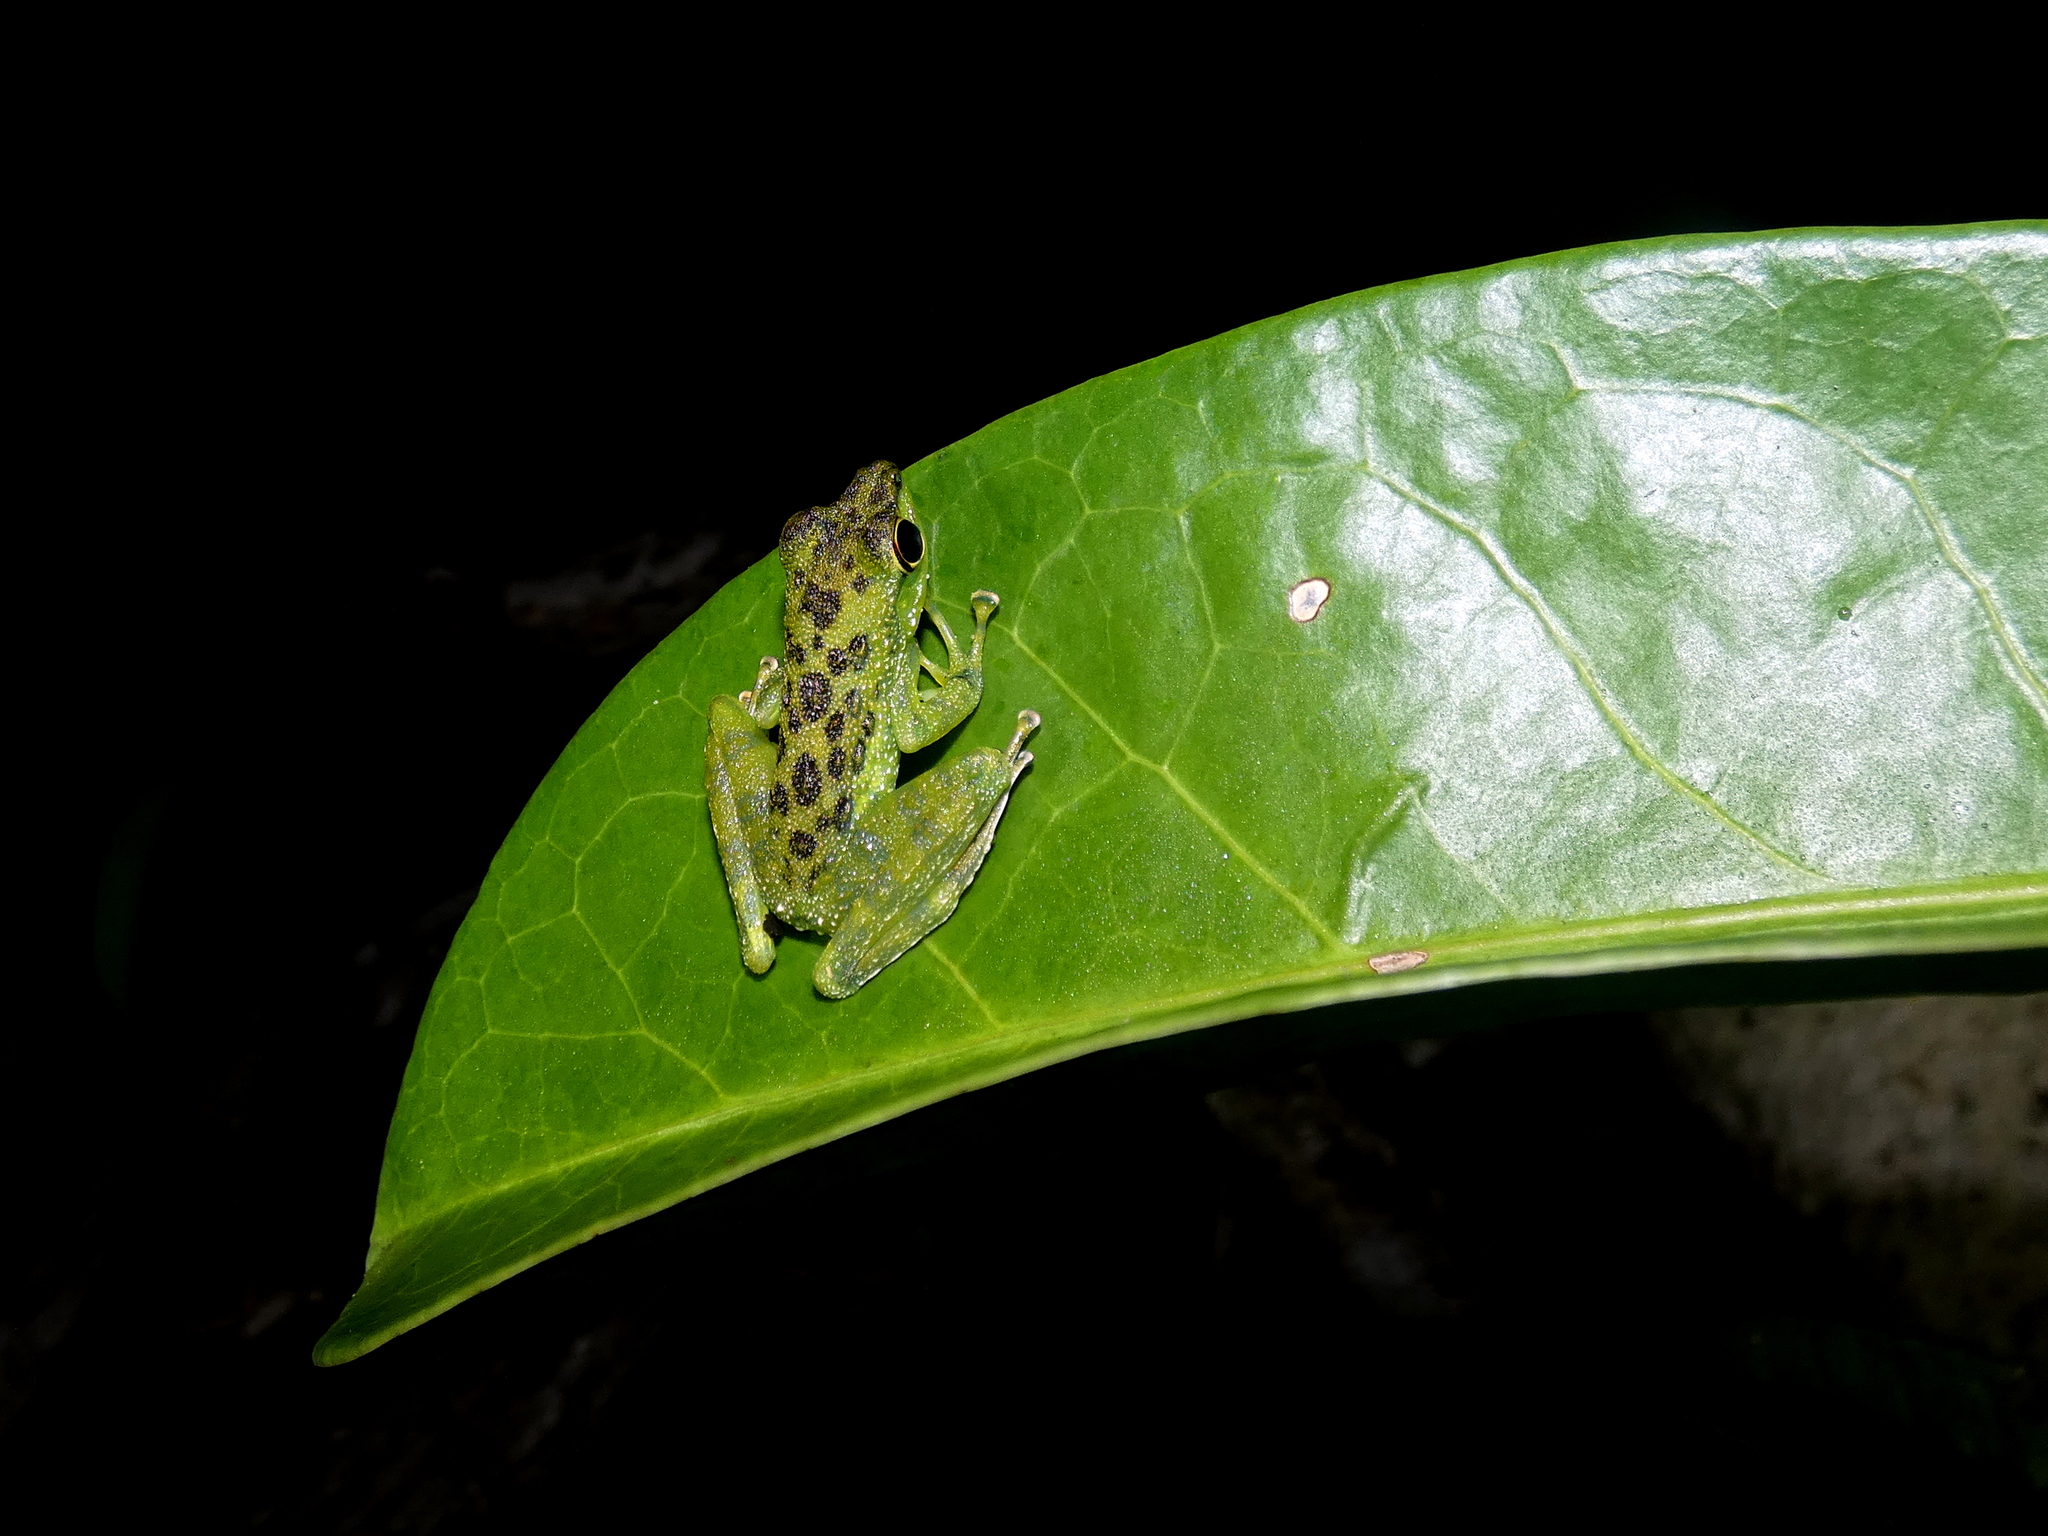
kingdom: Animalia
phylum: Chordata
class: Amphibia
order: Anura
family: Ranidae
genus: Staurois
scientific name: Staurois guttatus
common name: Black-spotted rock frog
